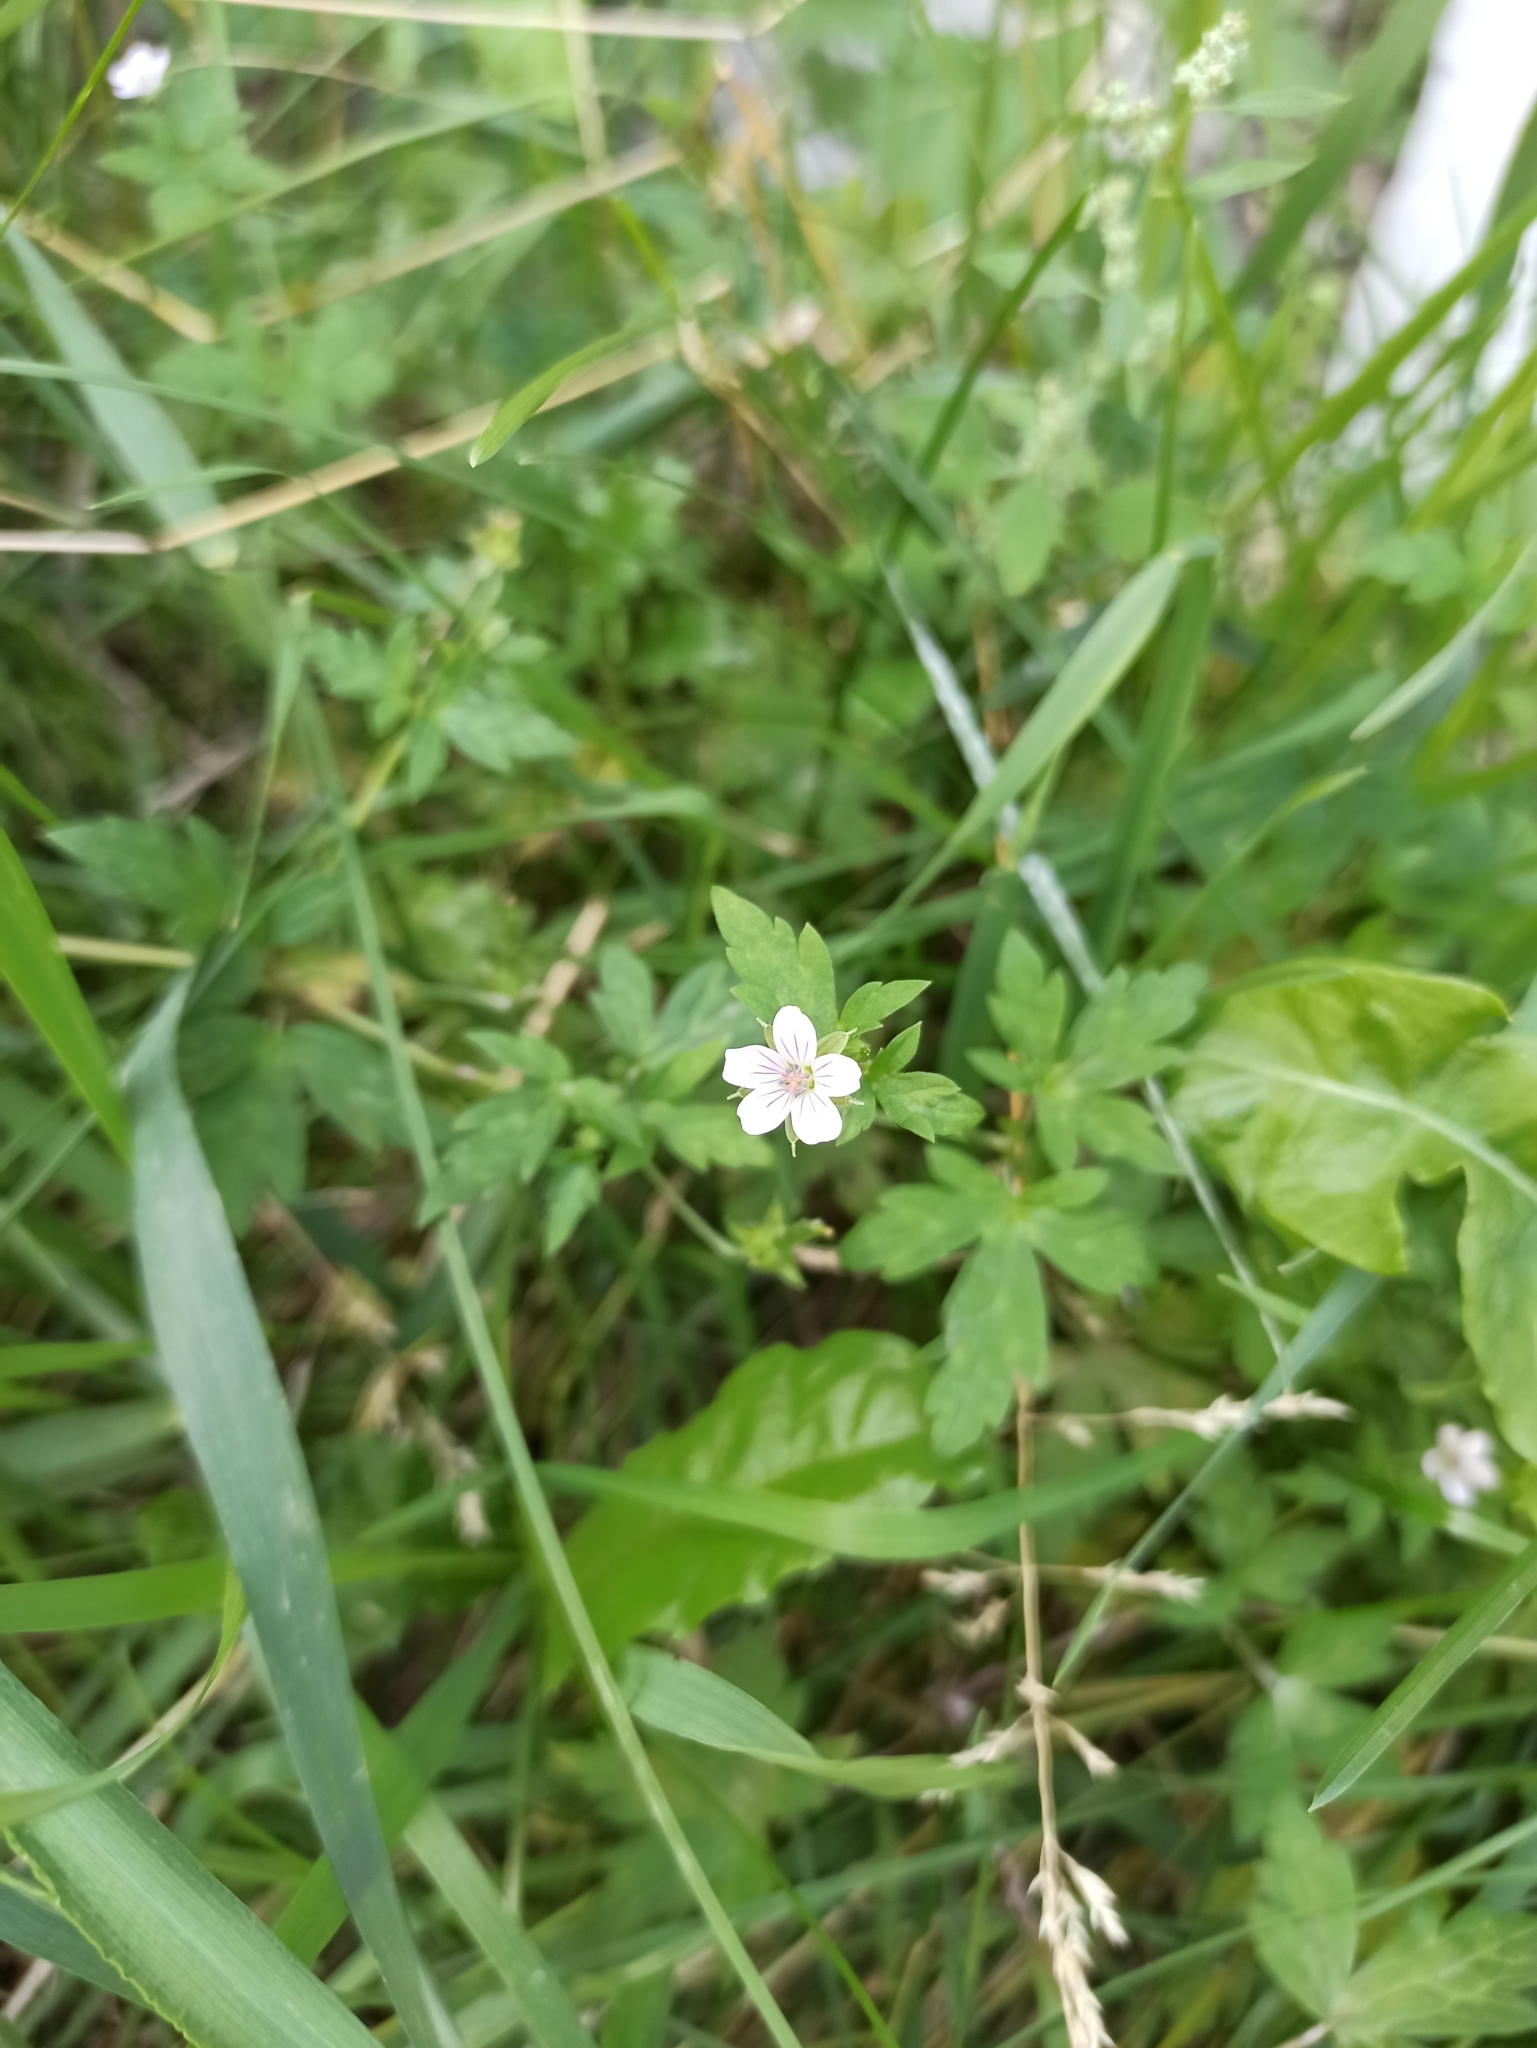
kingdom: Plantae
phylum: Tracheophyta
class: Magnoliopsida
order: Geraniales
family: Geraniaceae
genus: Geranium
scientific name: Geranium sibiricum
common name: Siberian crane's-bill
